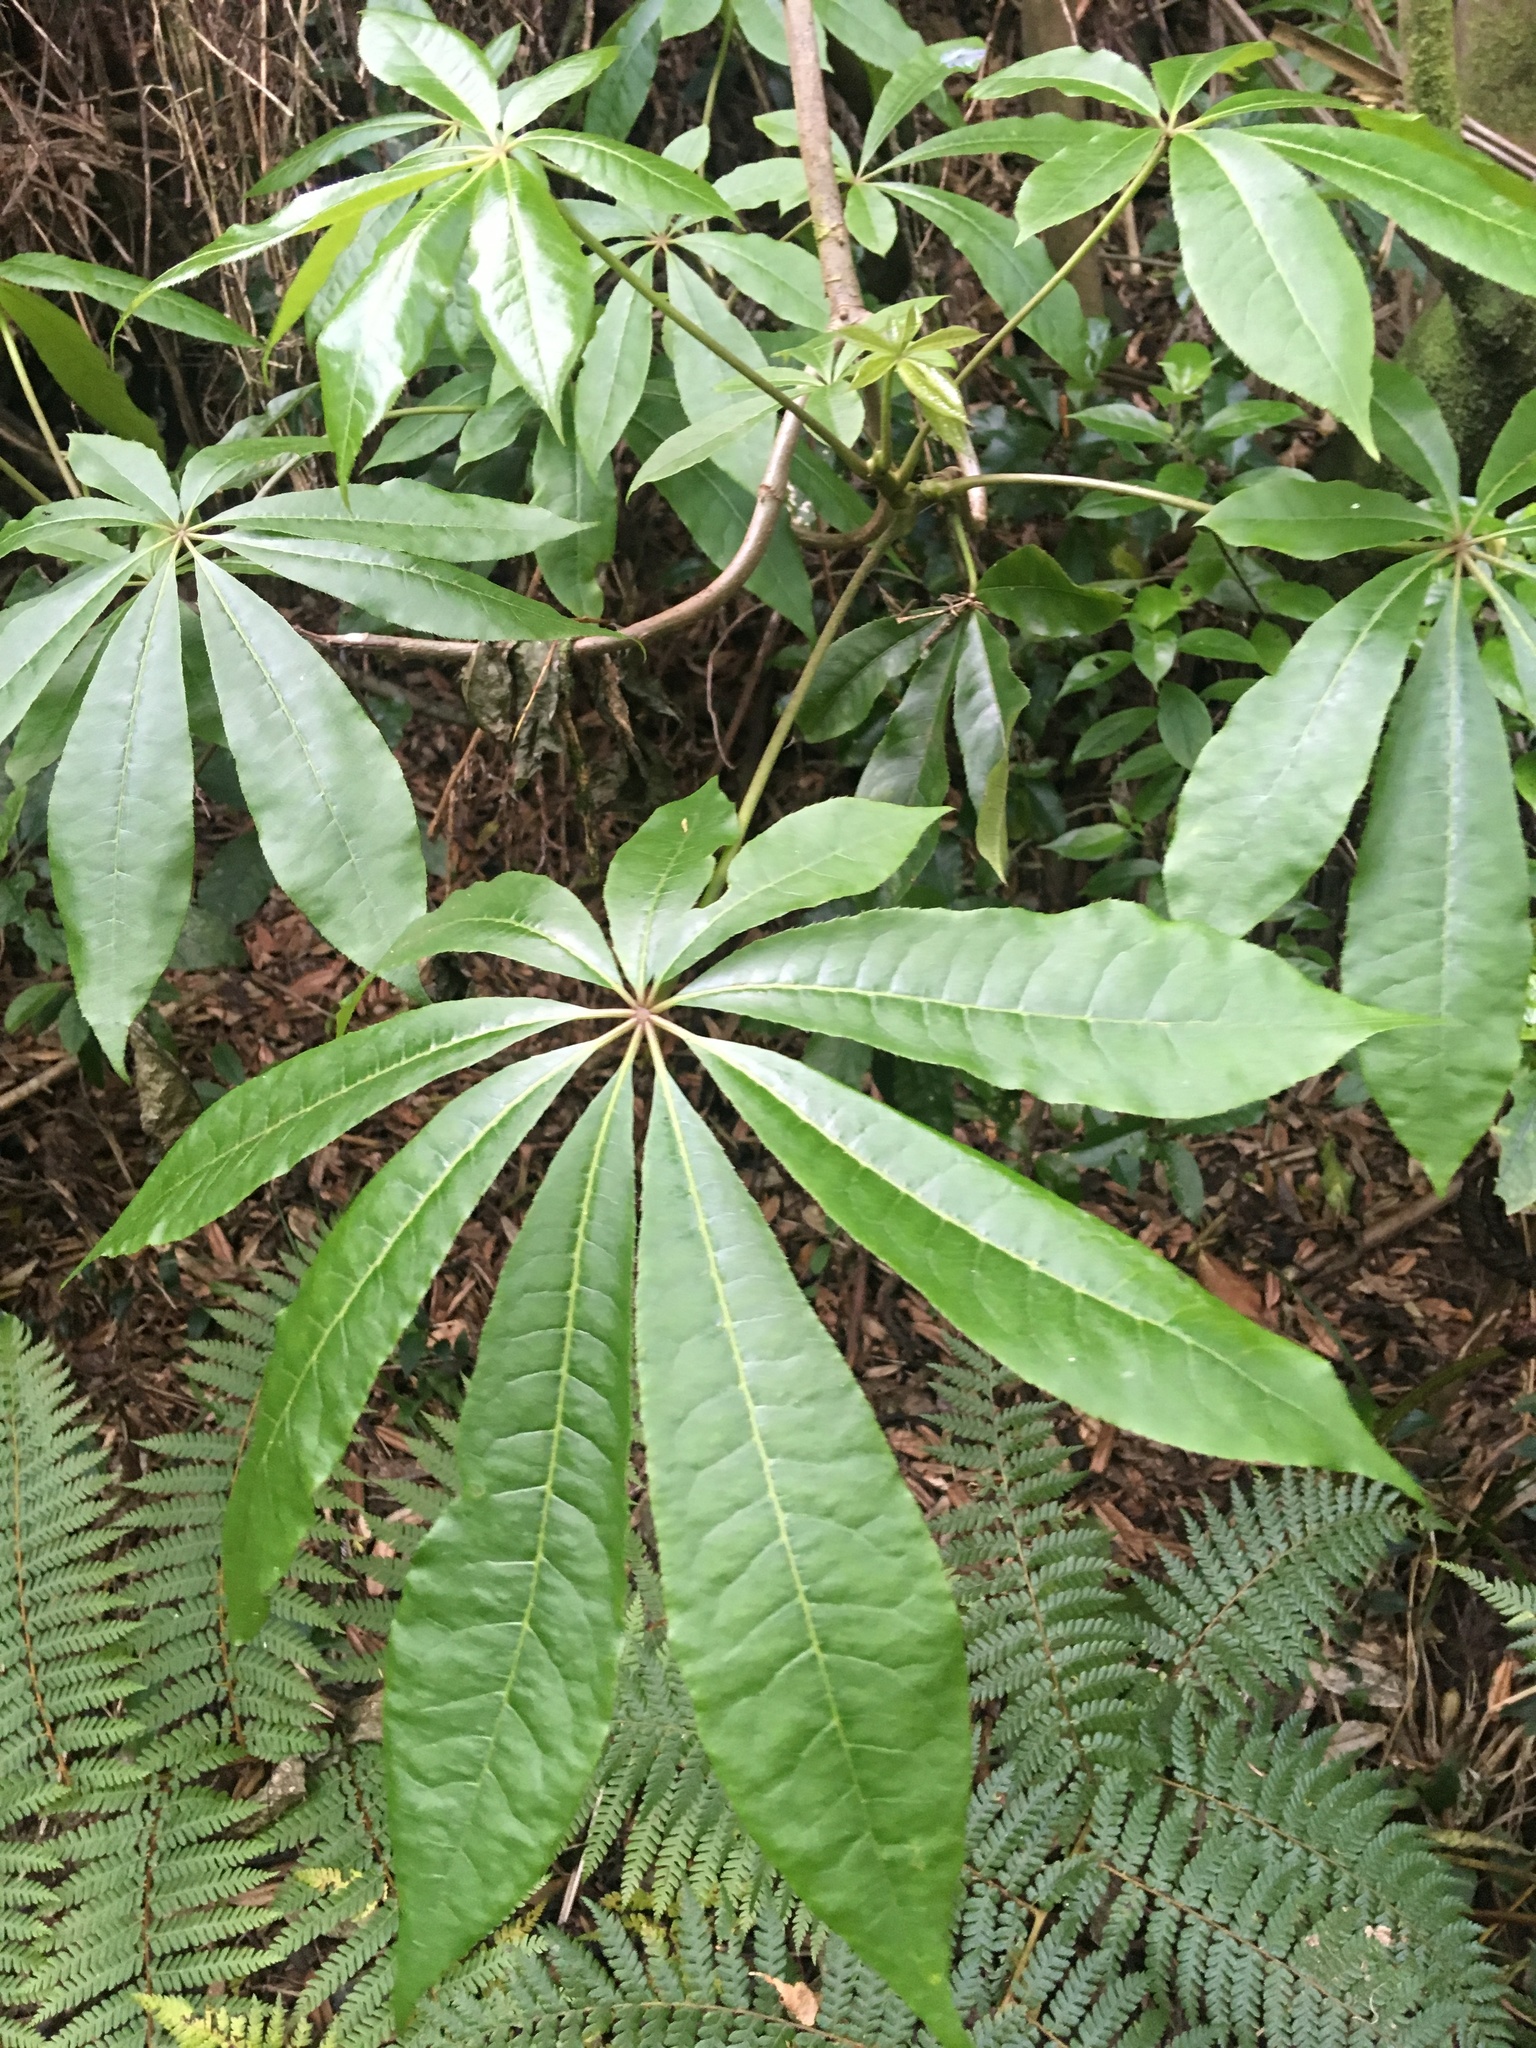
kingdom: Plantae
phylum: Tracheophyta
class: Magnoliopsida
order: Apiales
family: Araliaceae
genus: Schefflera
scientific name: Schefflera digitata
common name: Pate
